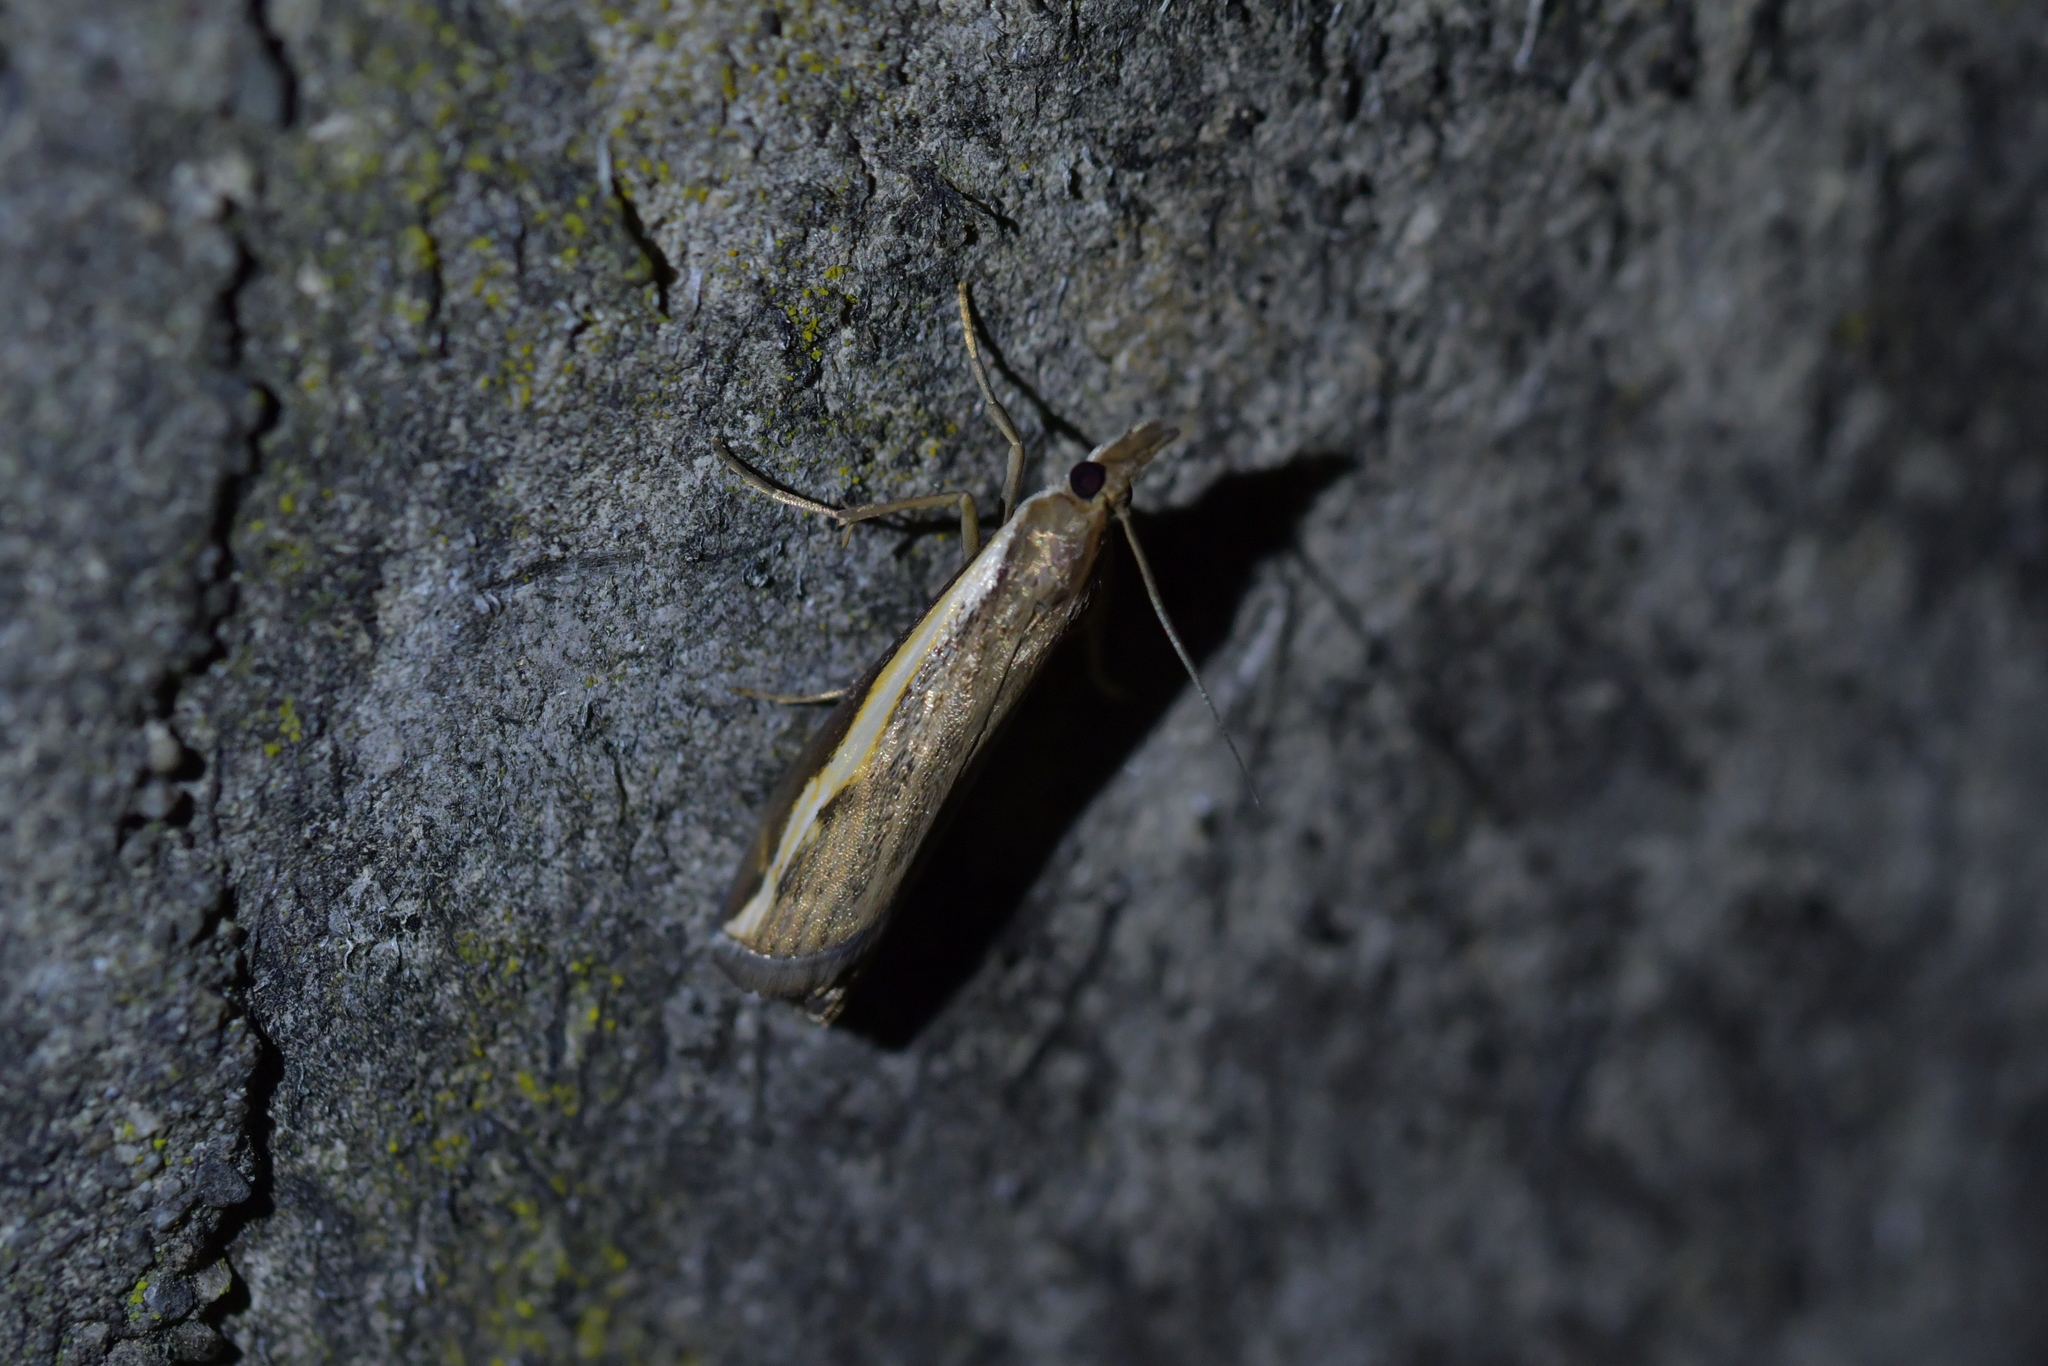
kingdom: Animalia
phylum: Arthropoda
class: Insecta
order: Lepidoptera
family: Crambidae
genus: Orocrambus
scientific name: Orocrambus flexuosellus
